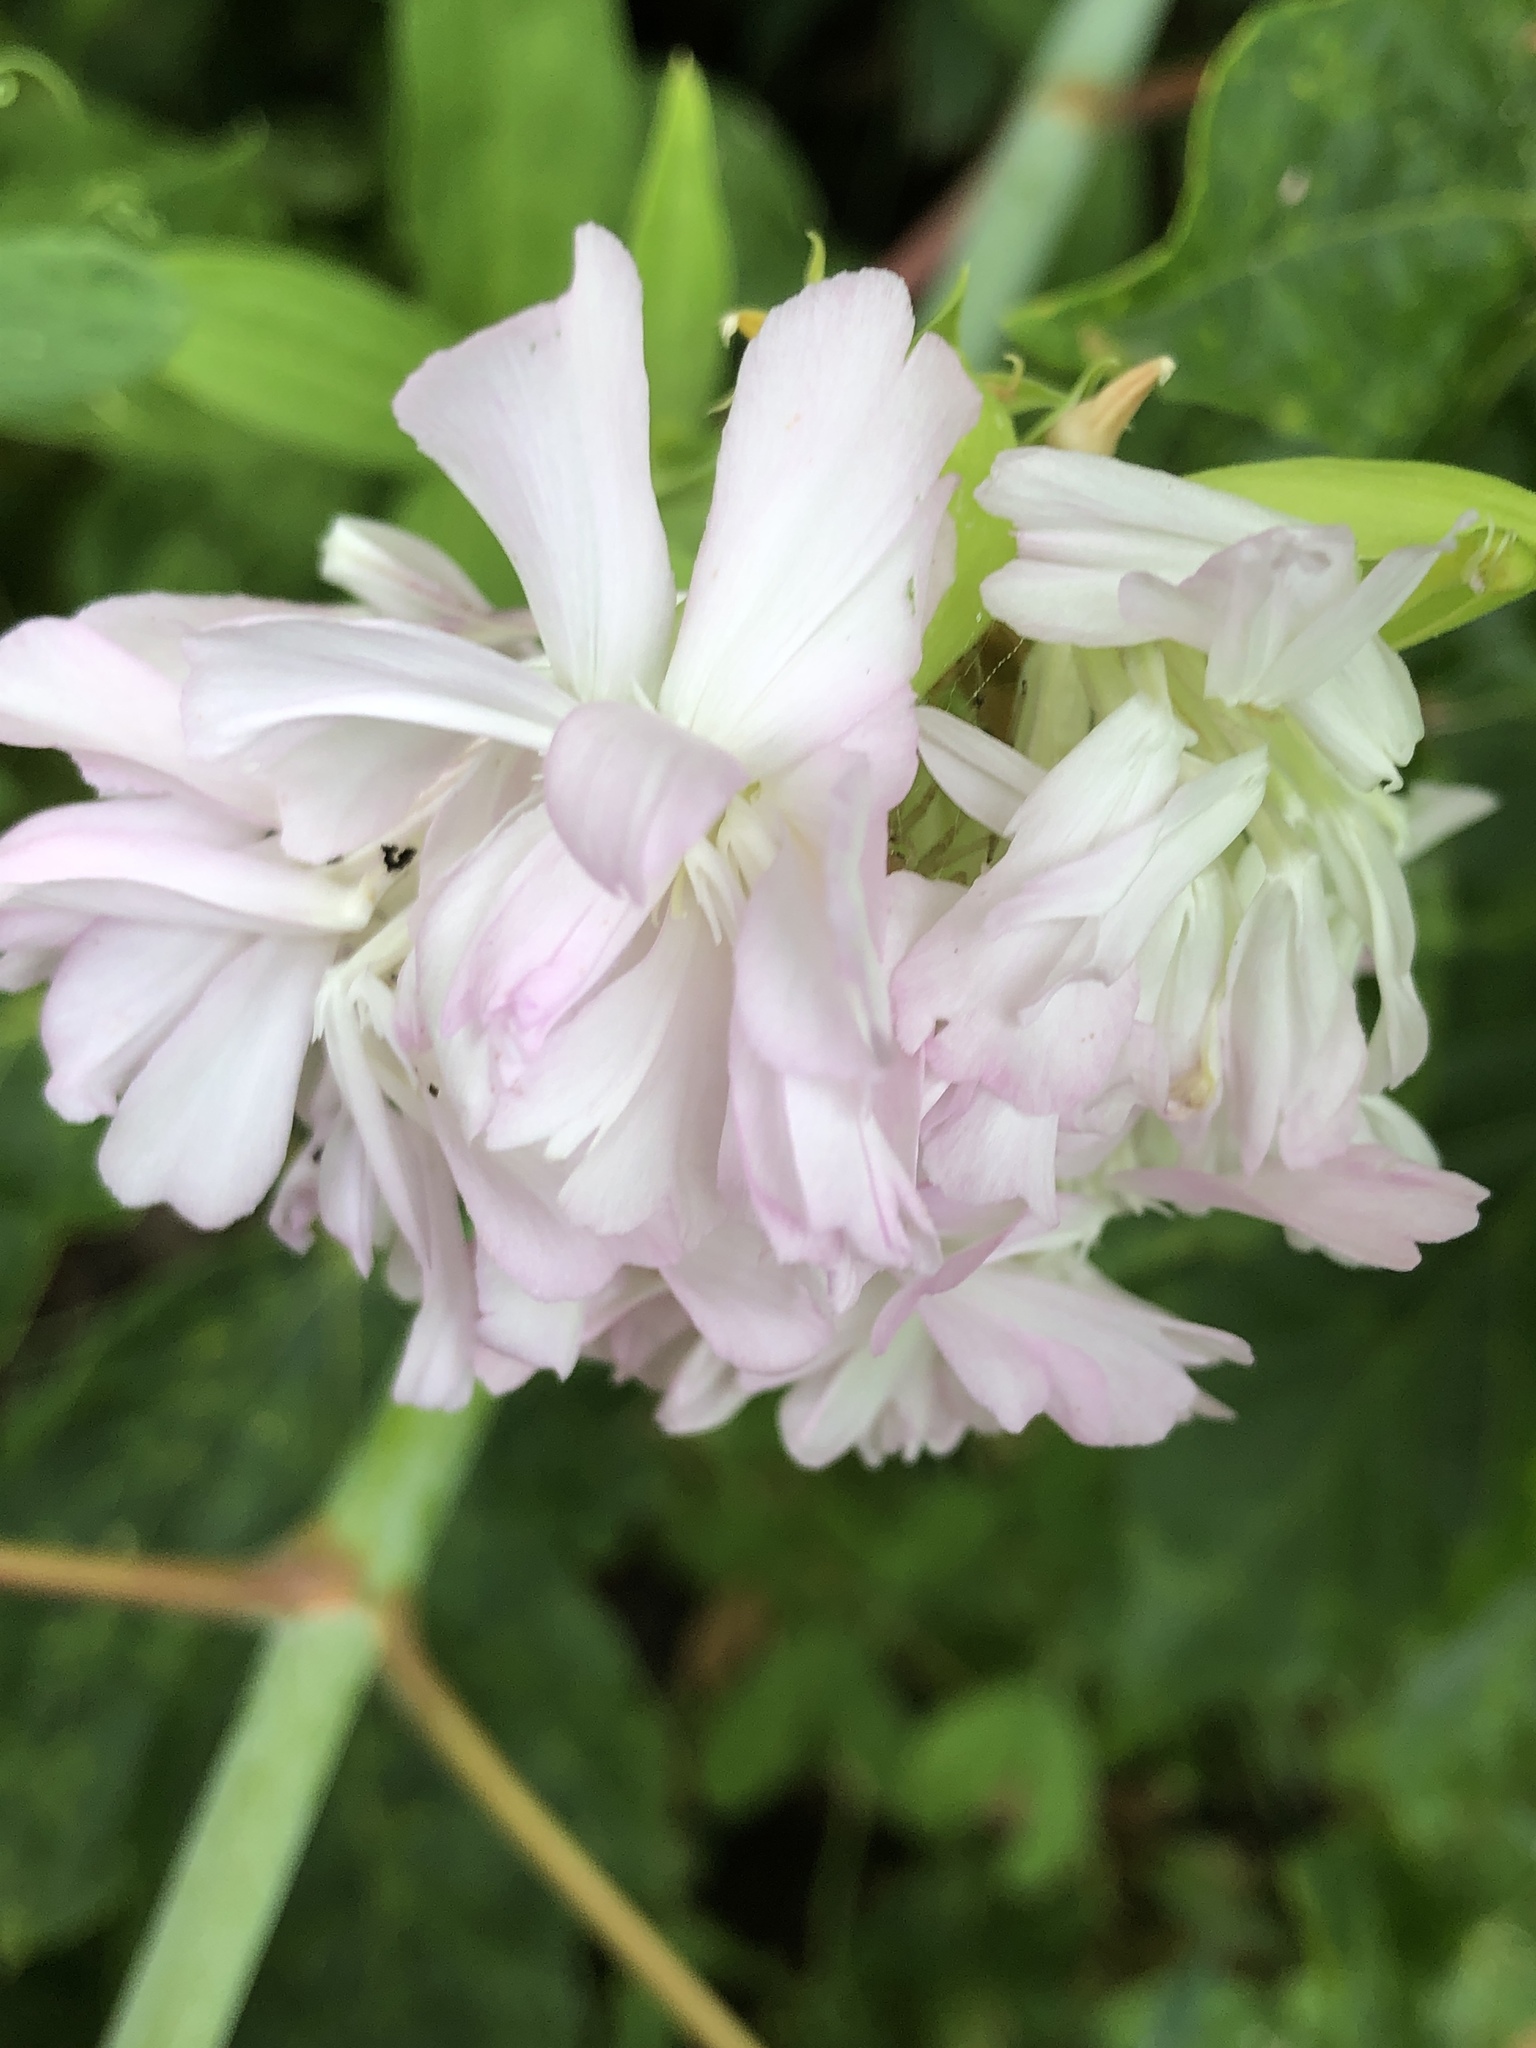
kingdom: Plantae
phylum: Tracheophyta
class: Magnoliopsida
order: Caryophyllales
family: Caryophyllaceae
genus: Saponaria
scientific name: Saponaria officinalis
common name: Soapwort
